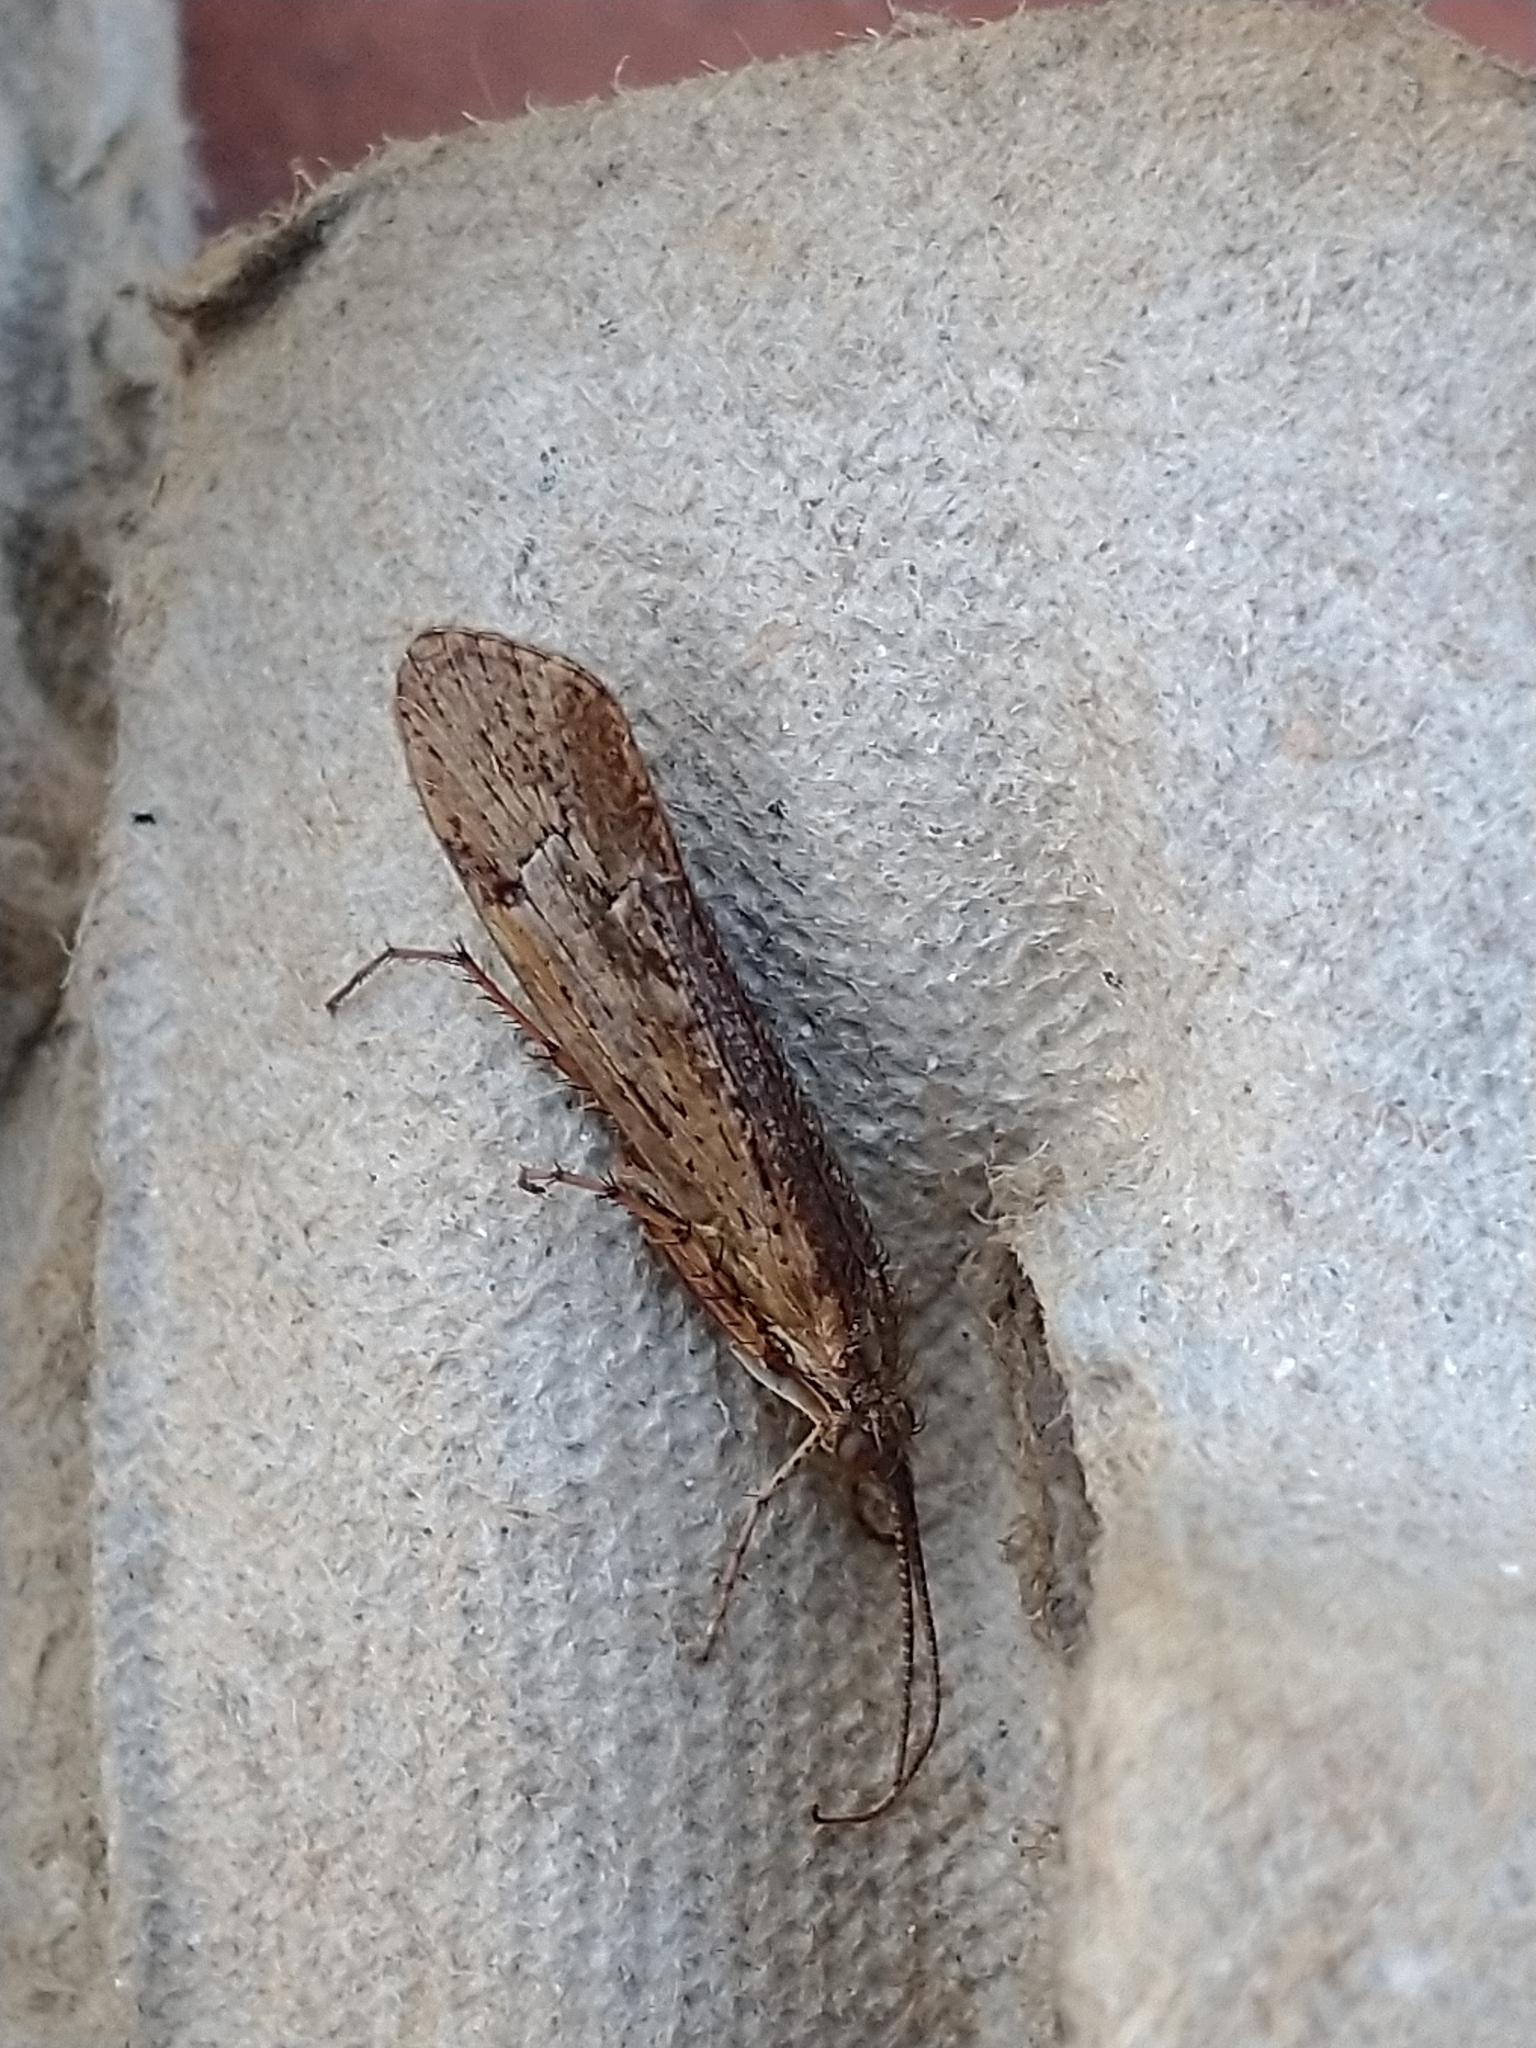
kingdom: Animalia
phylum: Arthropoda
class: Insecta
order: Trichoptera
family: Limnephilidae
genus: Limnephilus
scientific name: Limnephilus affinis
